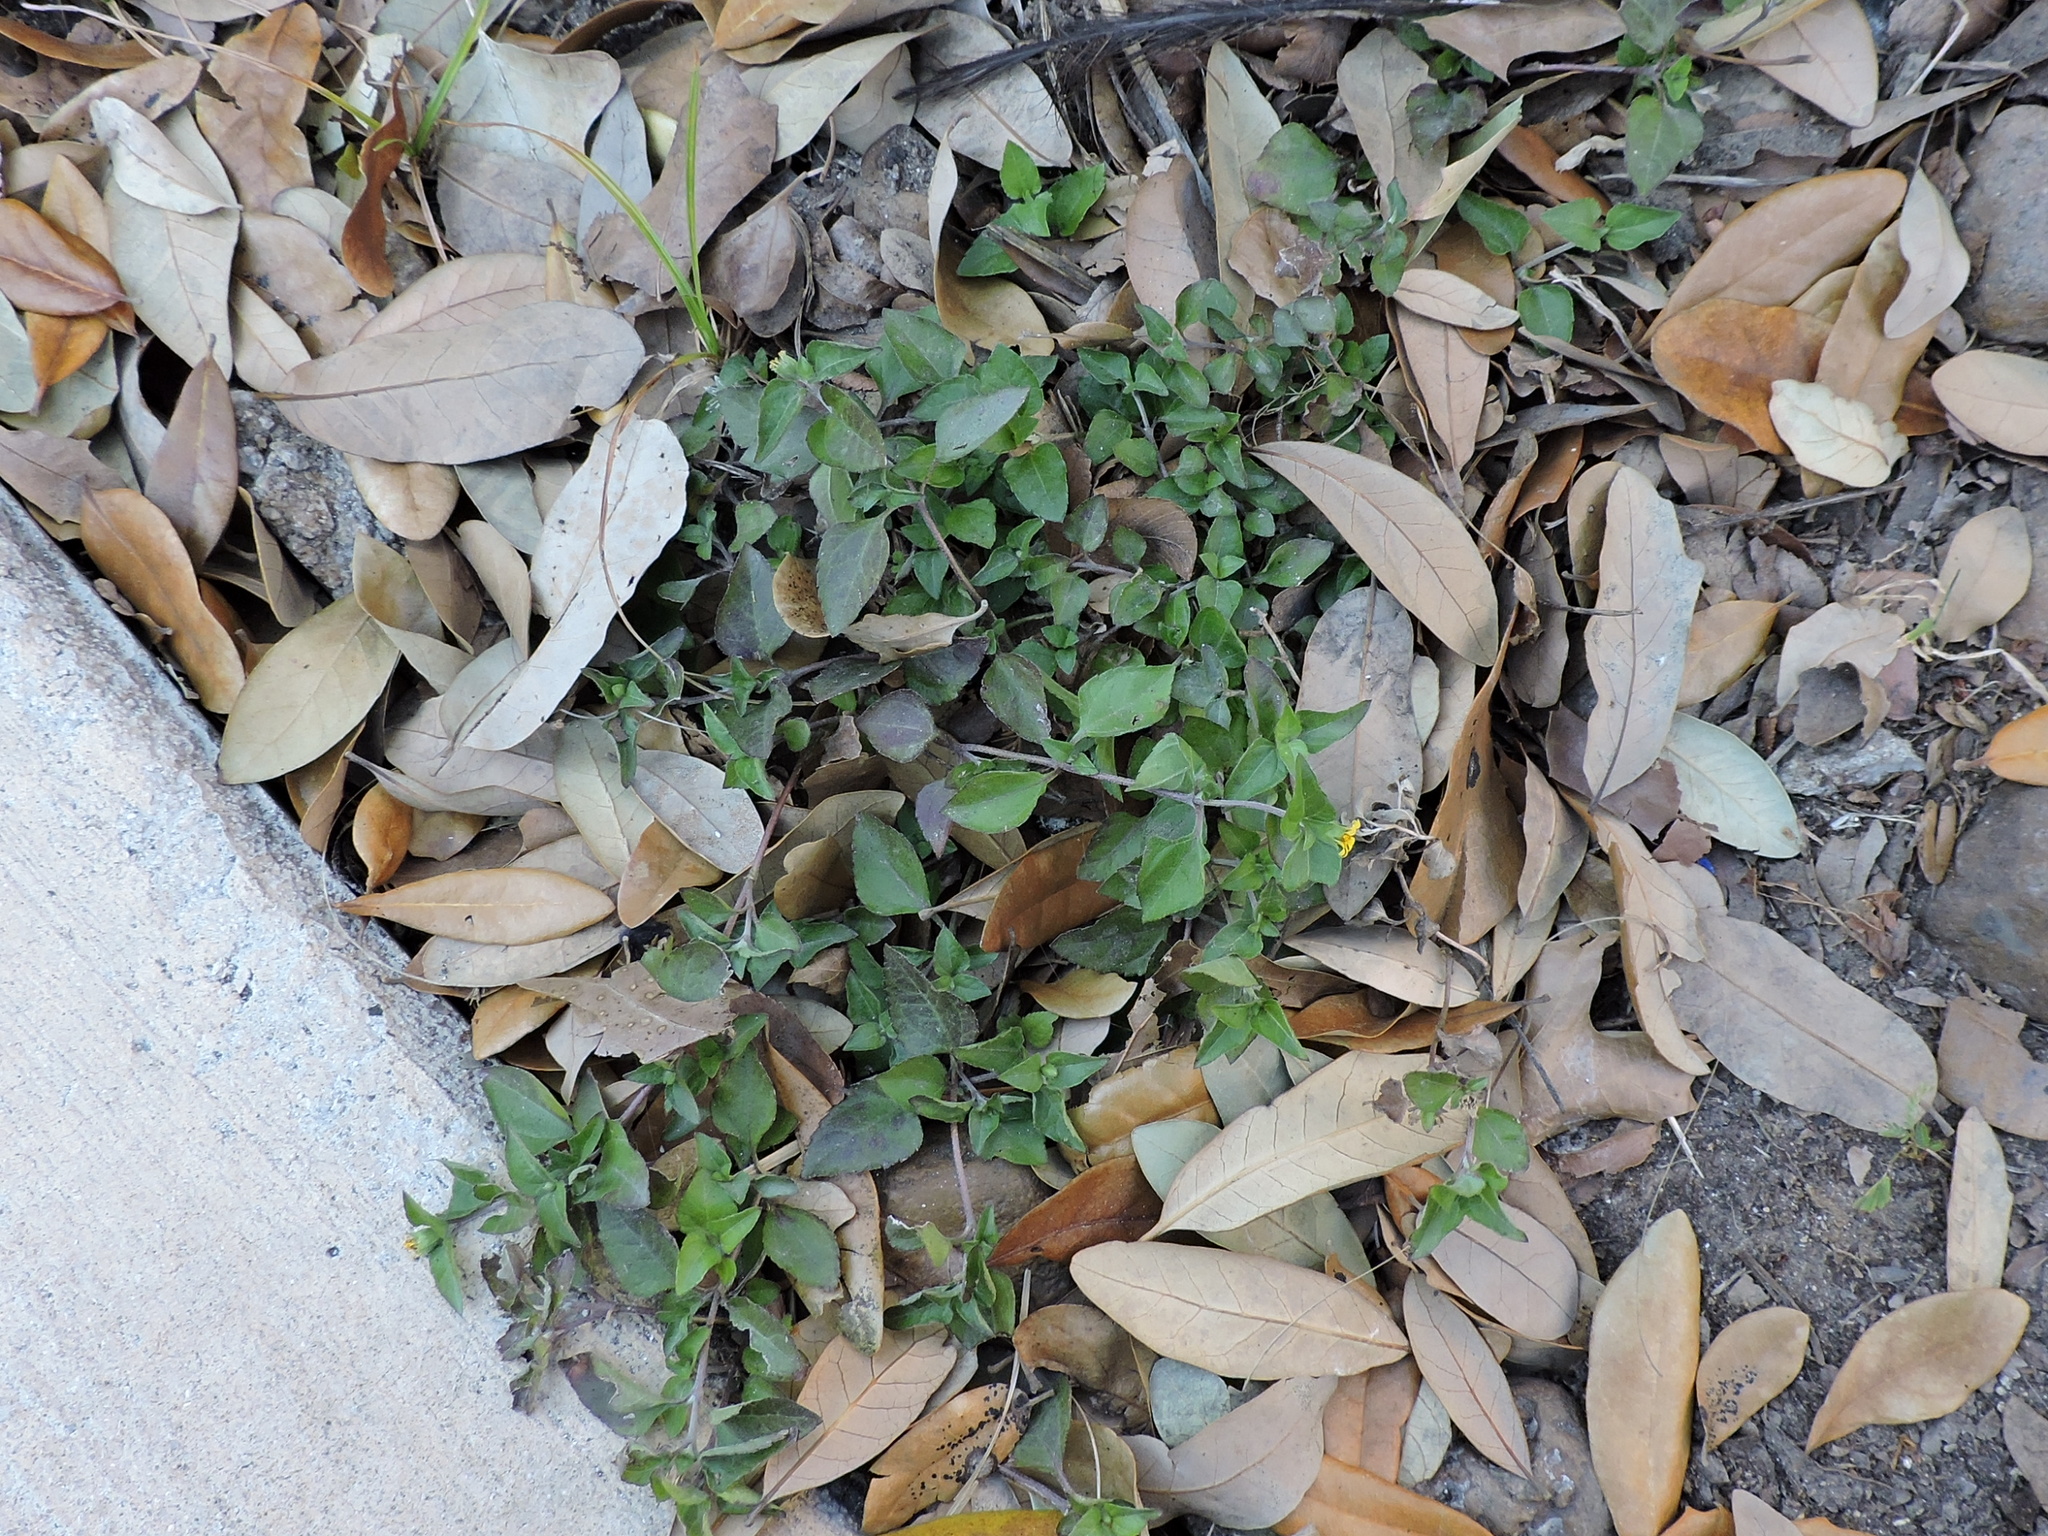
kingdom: Plantae
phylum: Tracheophyta
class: Magnoliopsida
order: Asterales
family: Asteraceae
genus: Calyptocarpus
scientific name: Calyptocarpus vialis
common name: Straggler daisy
